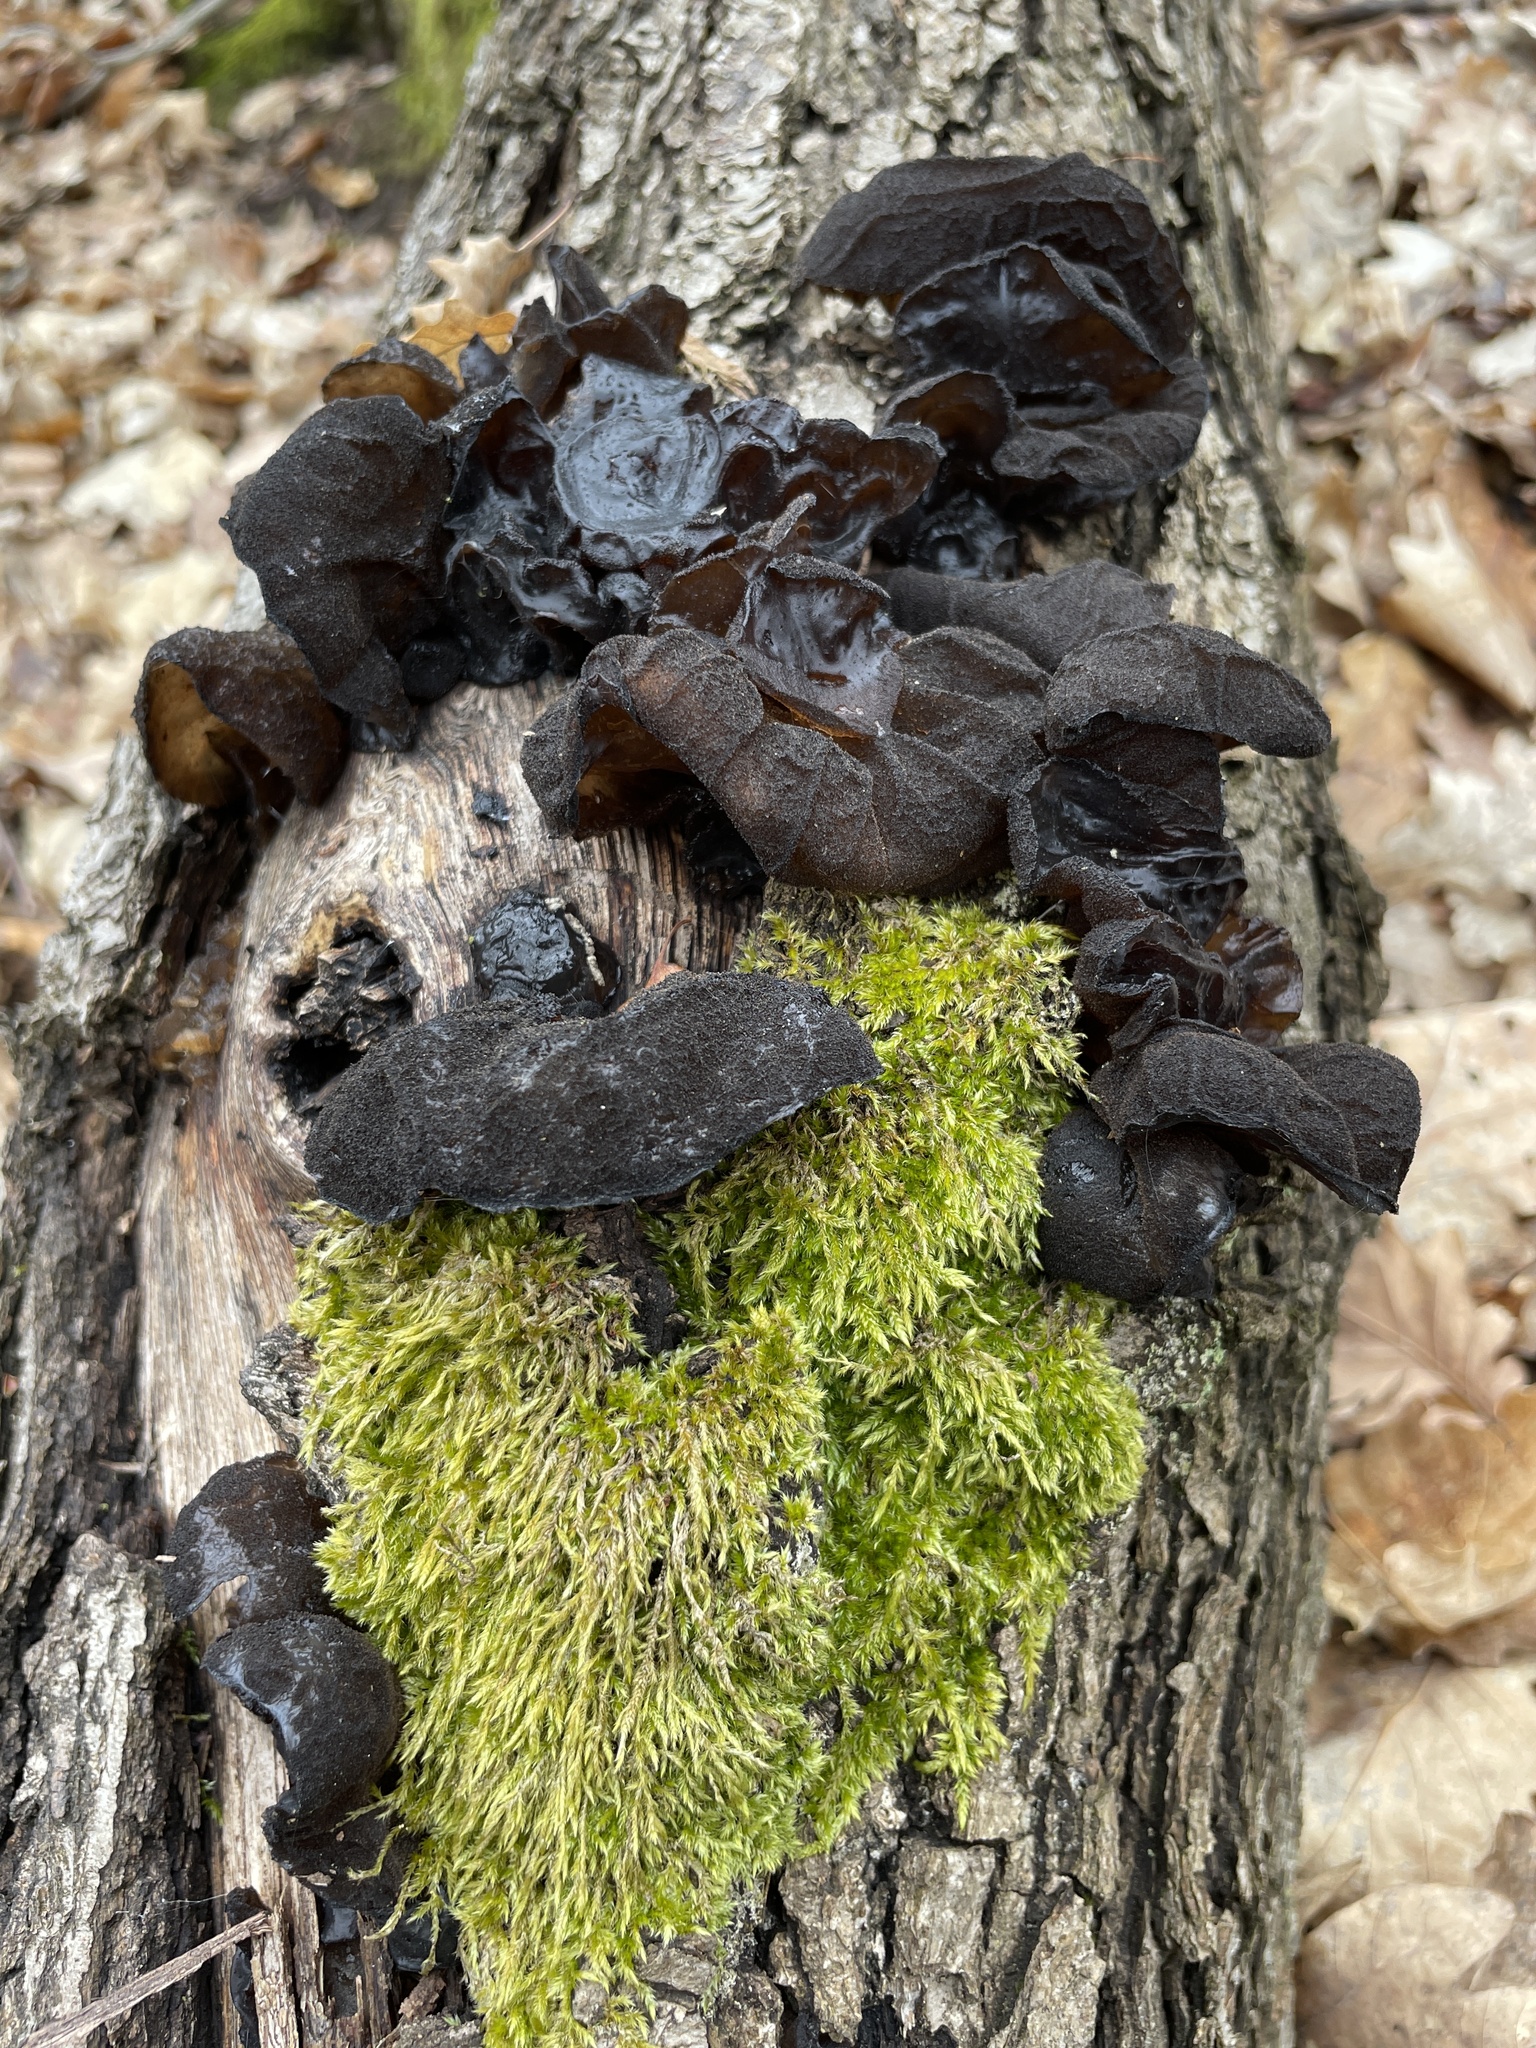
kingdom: Fungi
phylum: Basidiomycota
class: Agaricomycetes
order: Auriculariales
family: Auriculariaceae
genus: Auricularia
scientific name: Auricularia auricula-judae
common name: Jelly ear
